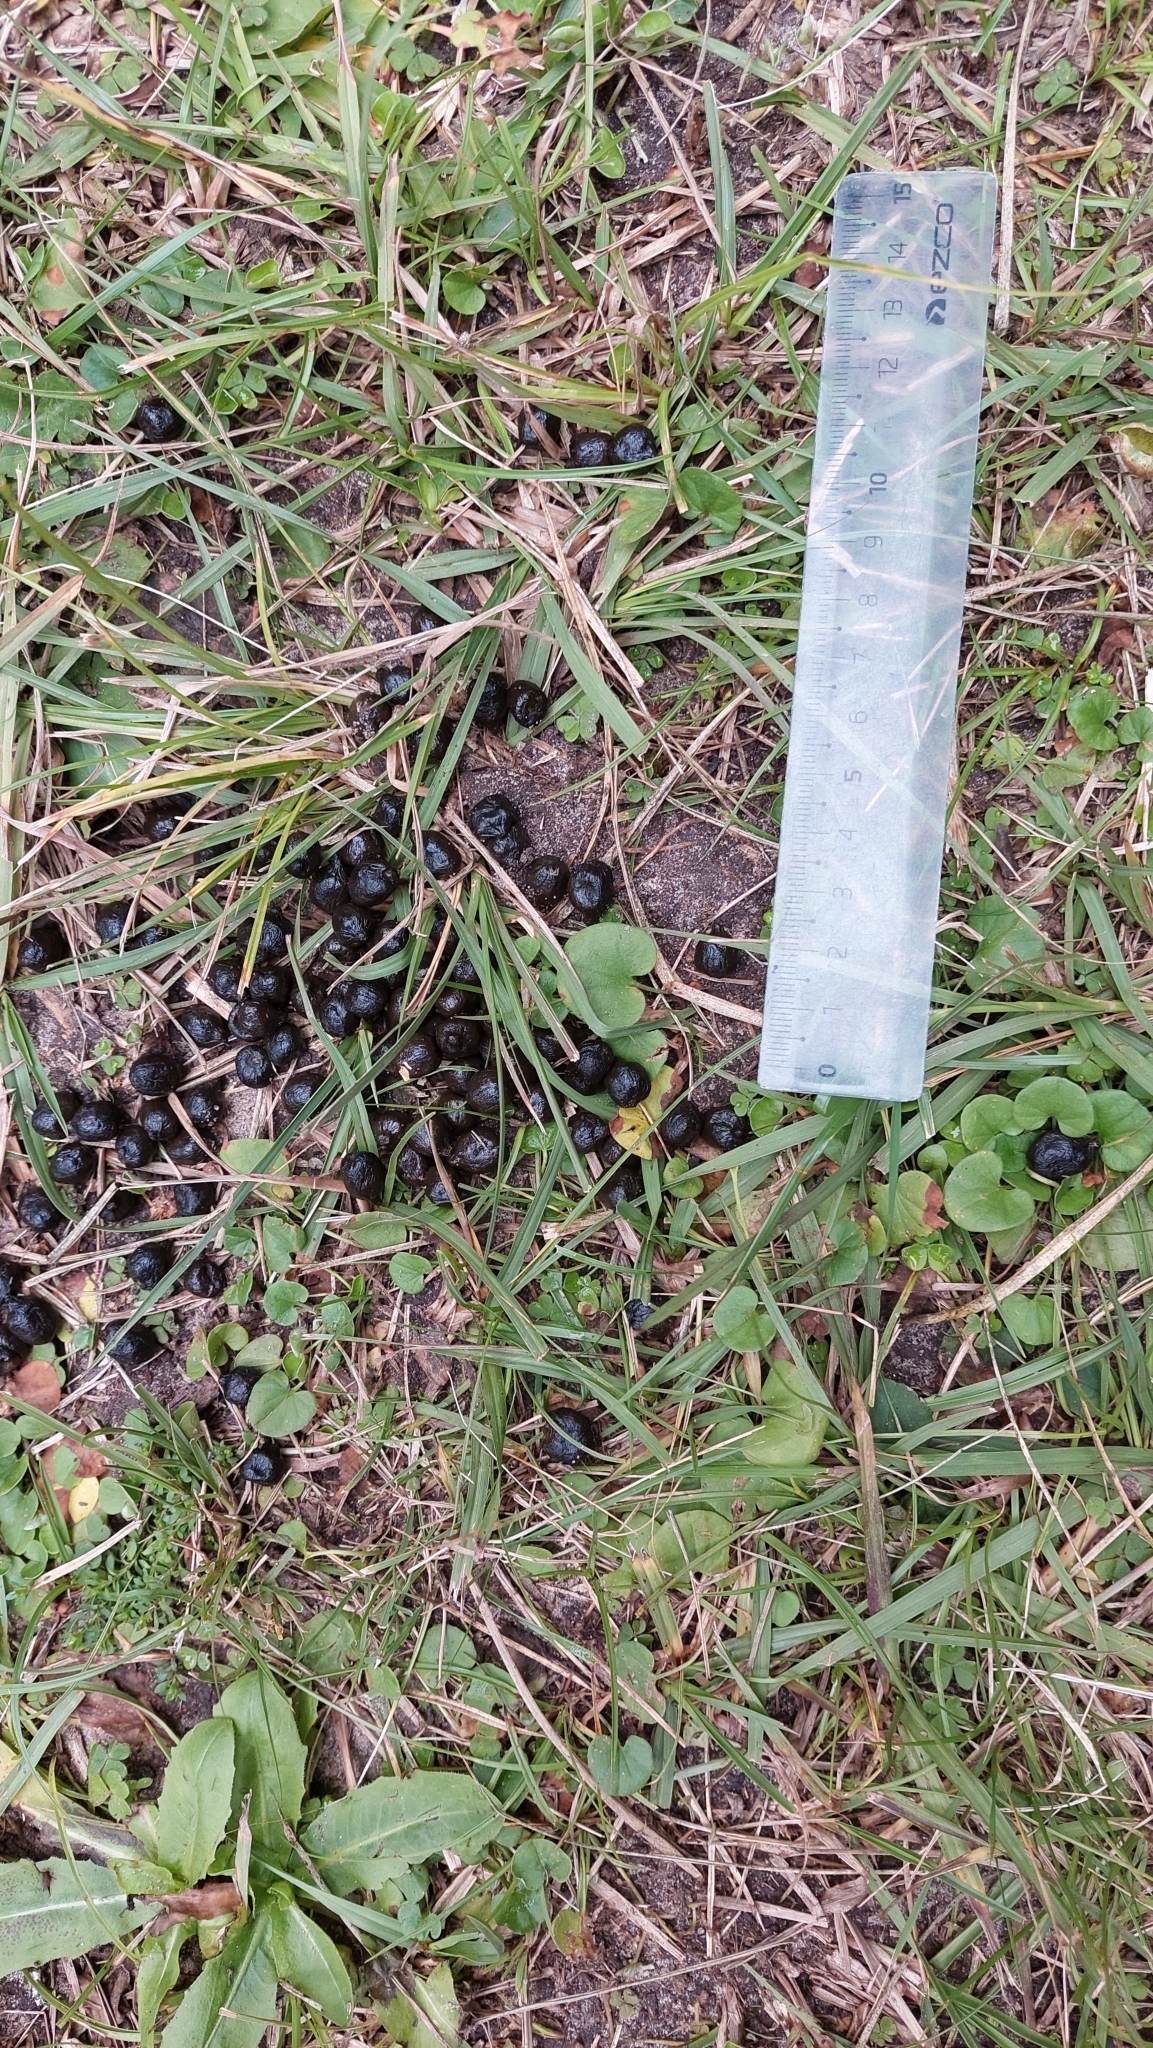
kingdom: Animalia
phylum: Chordata
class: Mammalia
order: Artiodactyla
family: Cervidae
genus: Axis
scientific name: Axis axis
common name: Chital
